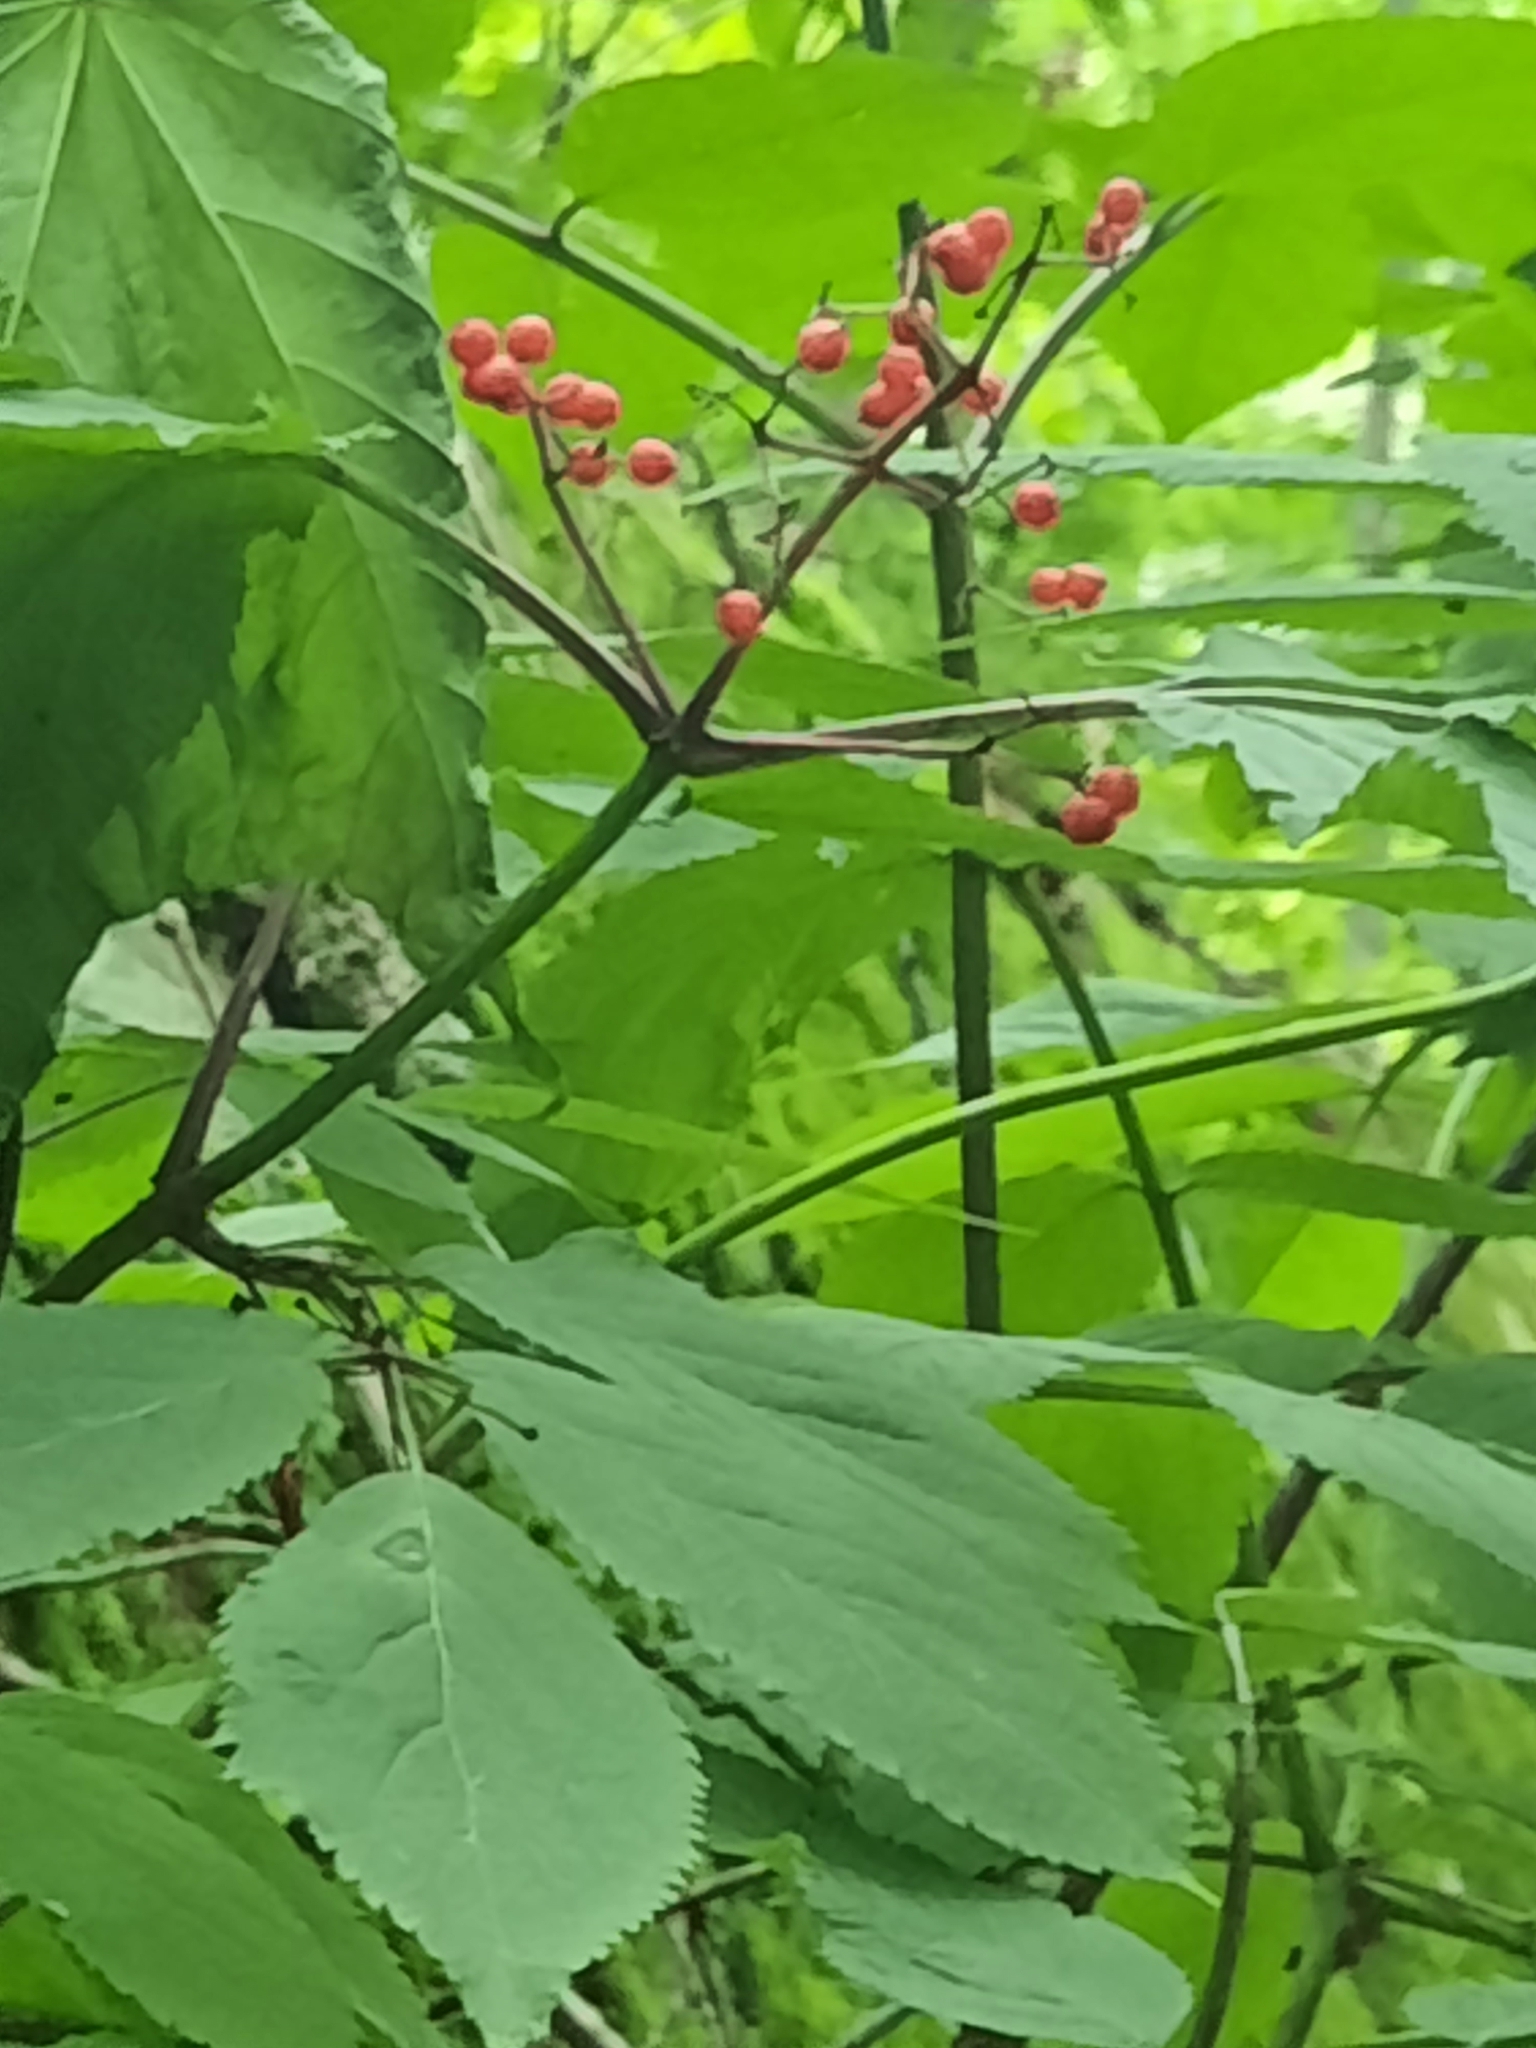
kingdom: Plantae
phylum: Tracheophyta
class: Magnoliopsida
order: Dipsacales
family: Viburnaceae
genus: Sambucus
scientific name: Sambucus racemosa
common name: Red-berried elder
